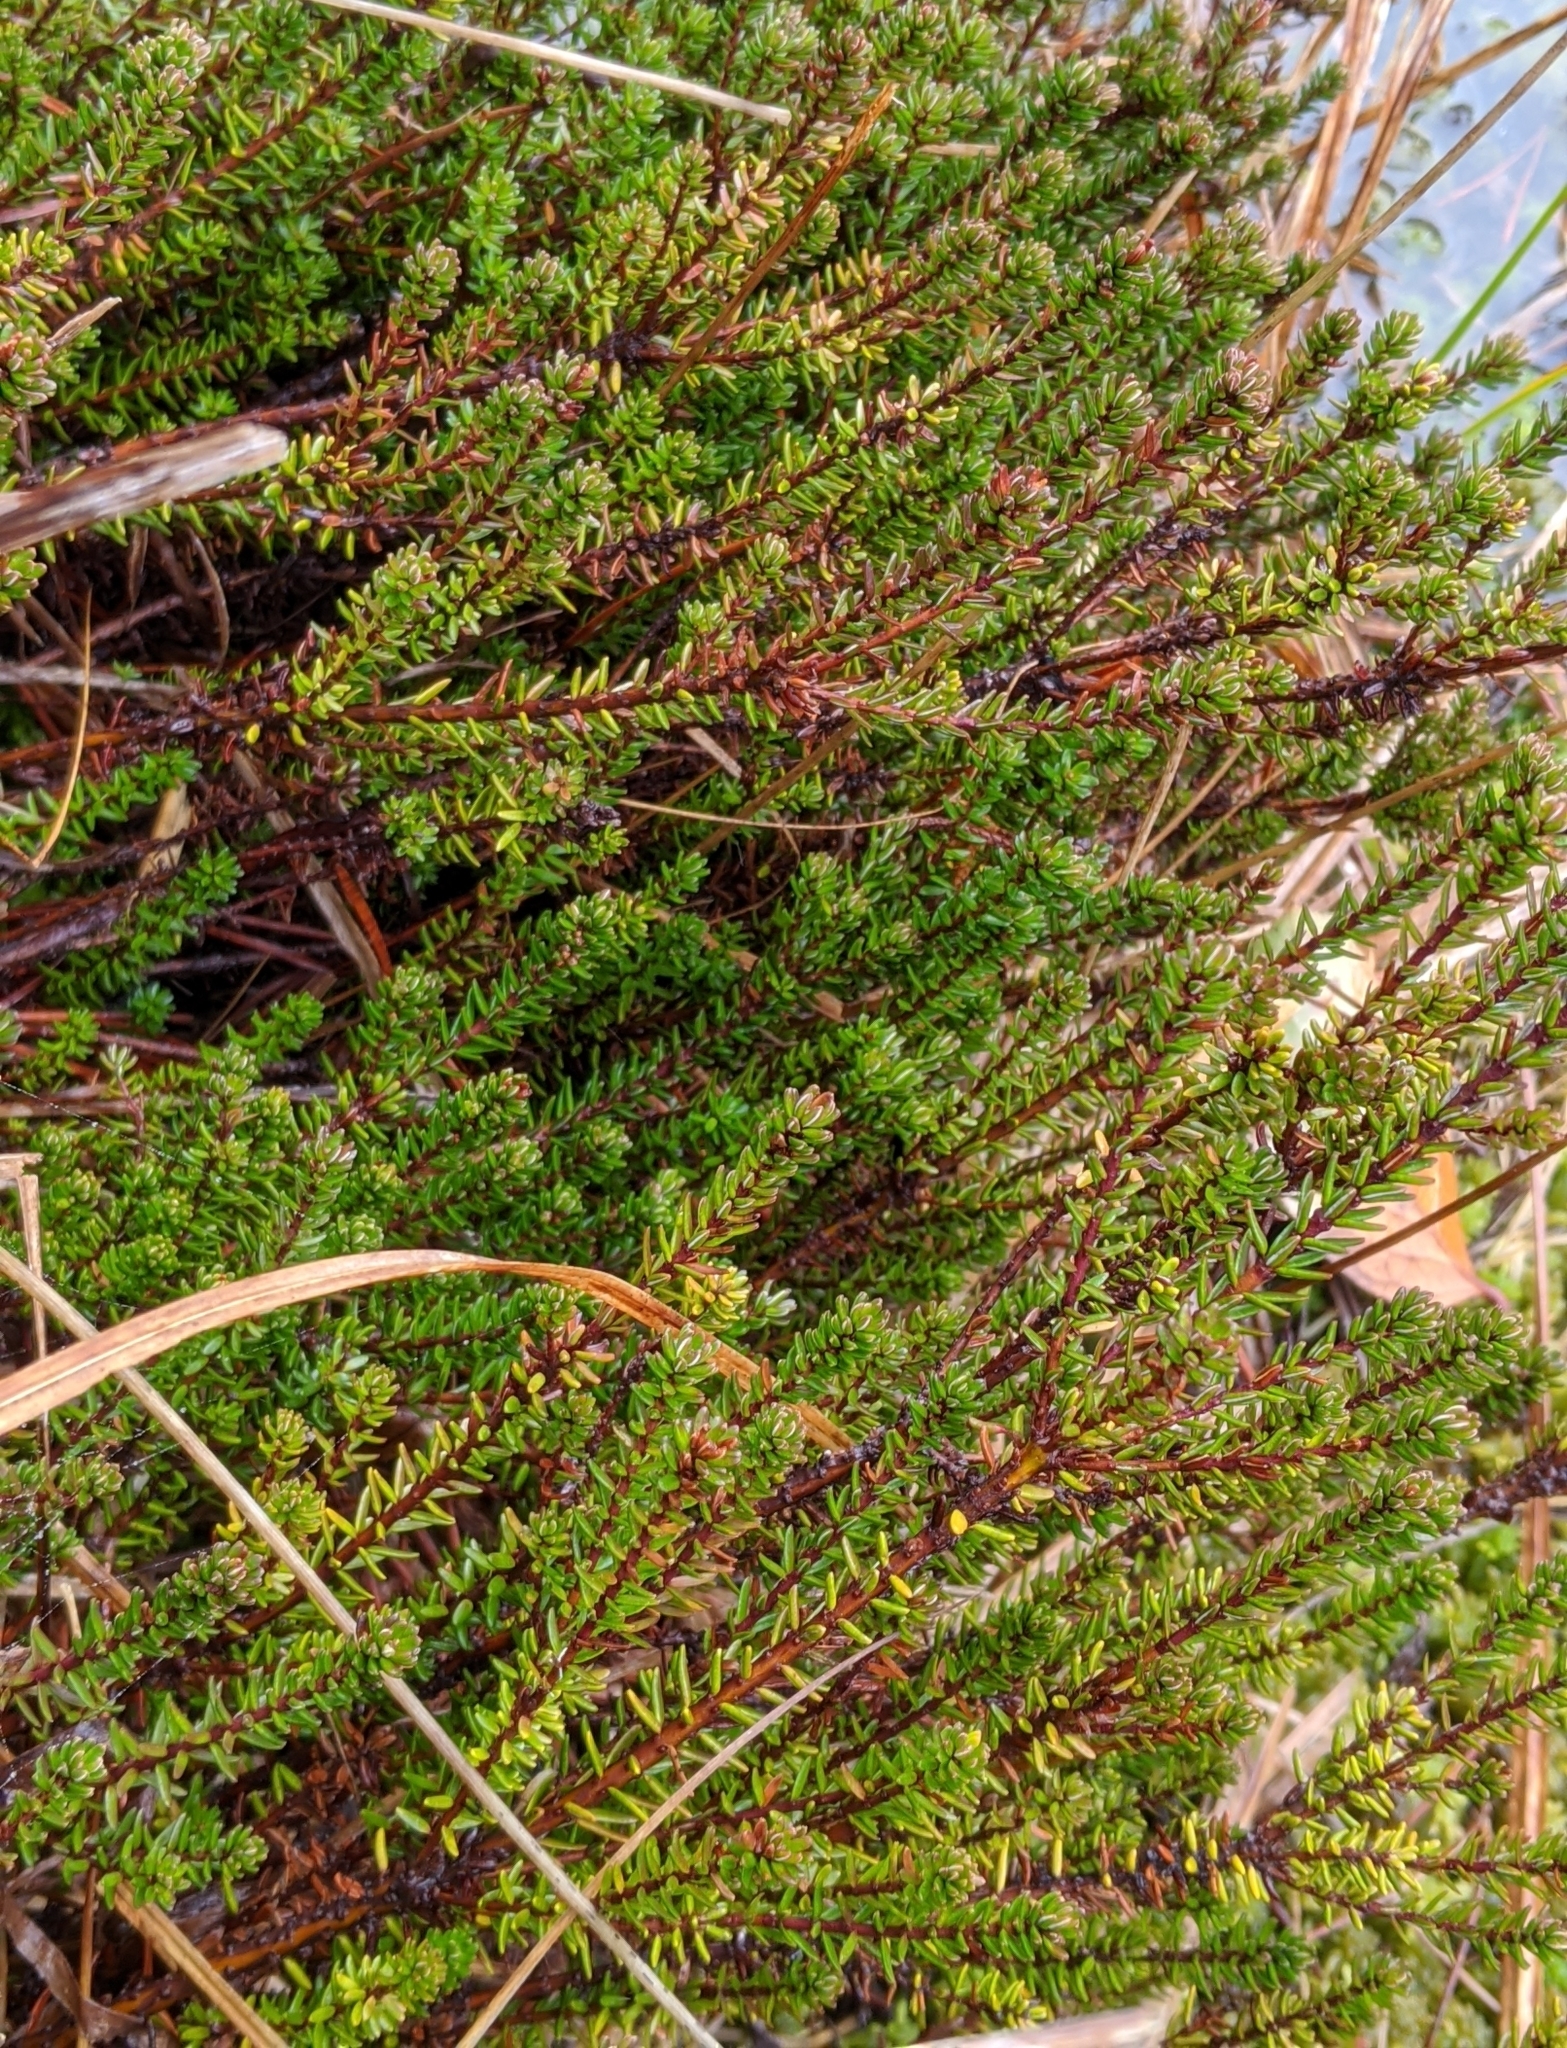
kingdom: Plantae
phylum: Tracheophyta
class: Magnoliopsida
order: Ericales
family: Ericaceae
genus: Empetrum
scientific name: Empetrum nigrum
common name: Black crowberry
